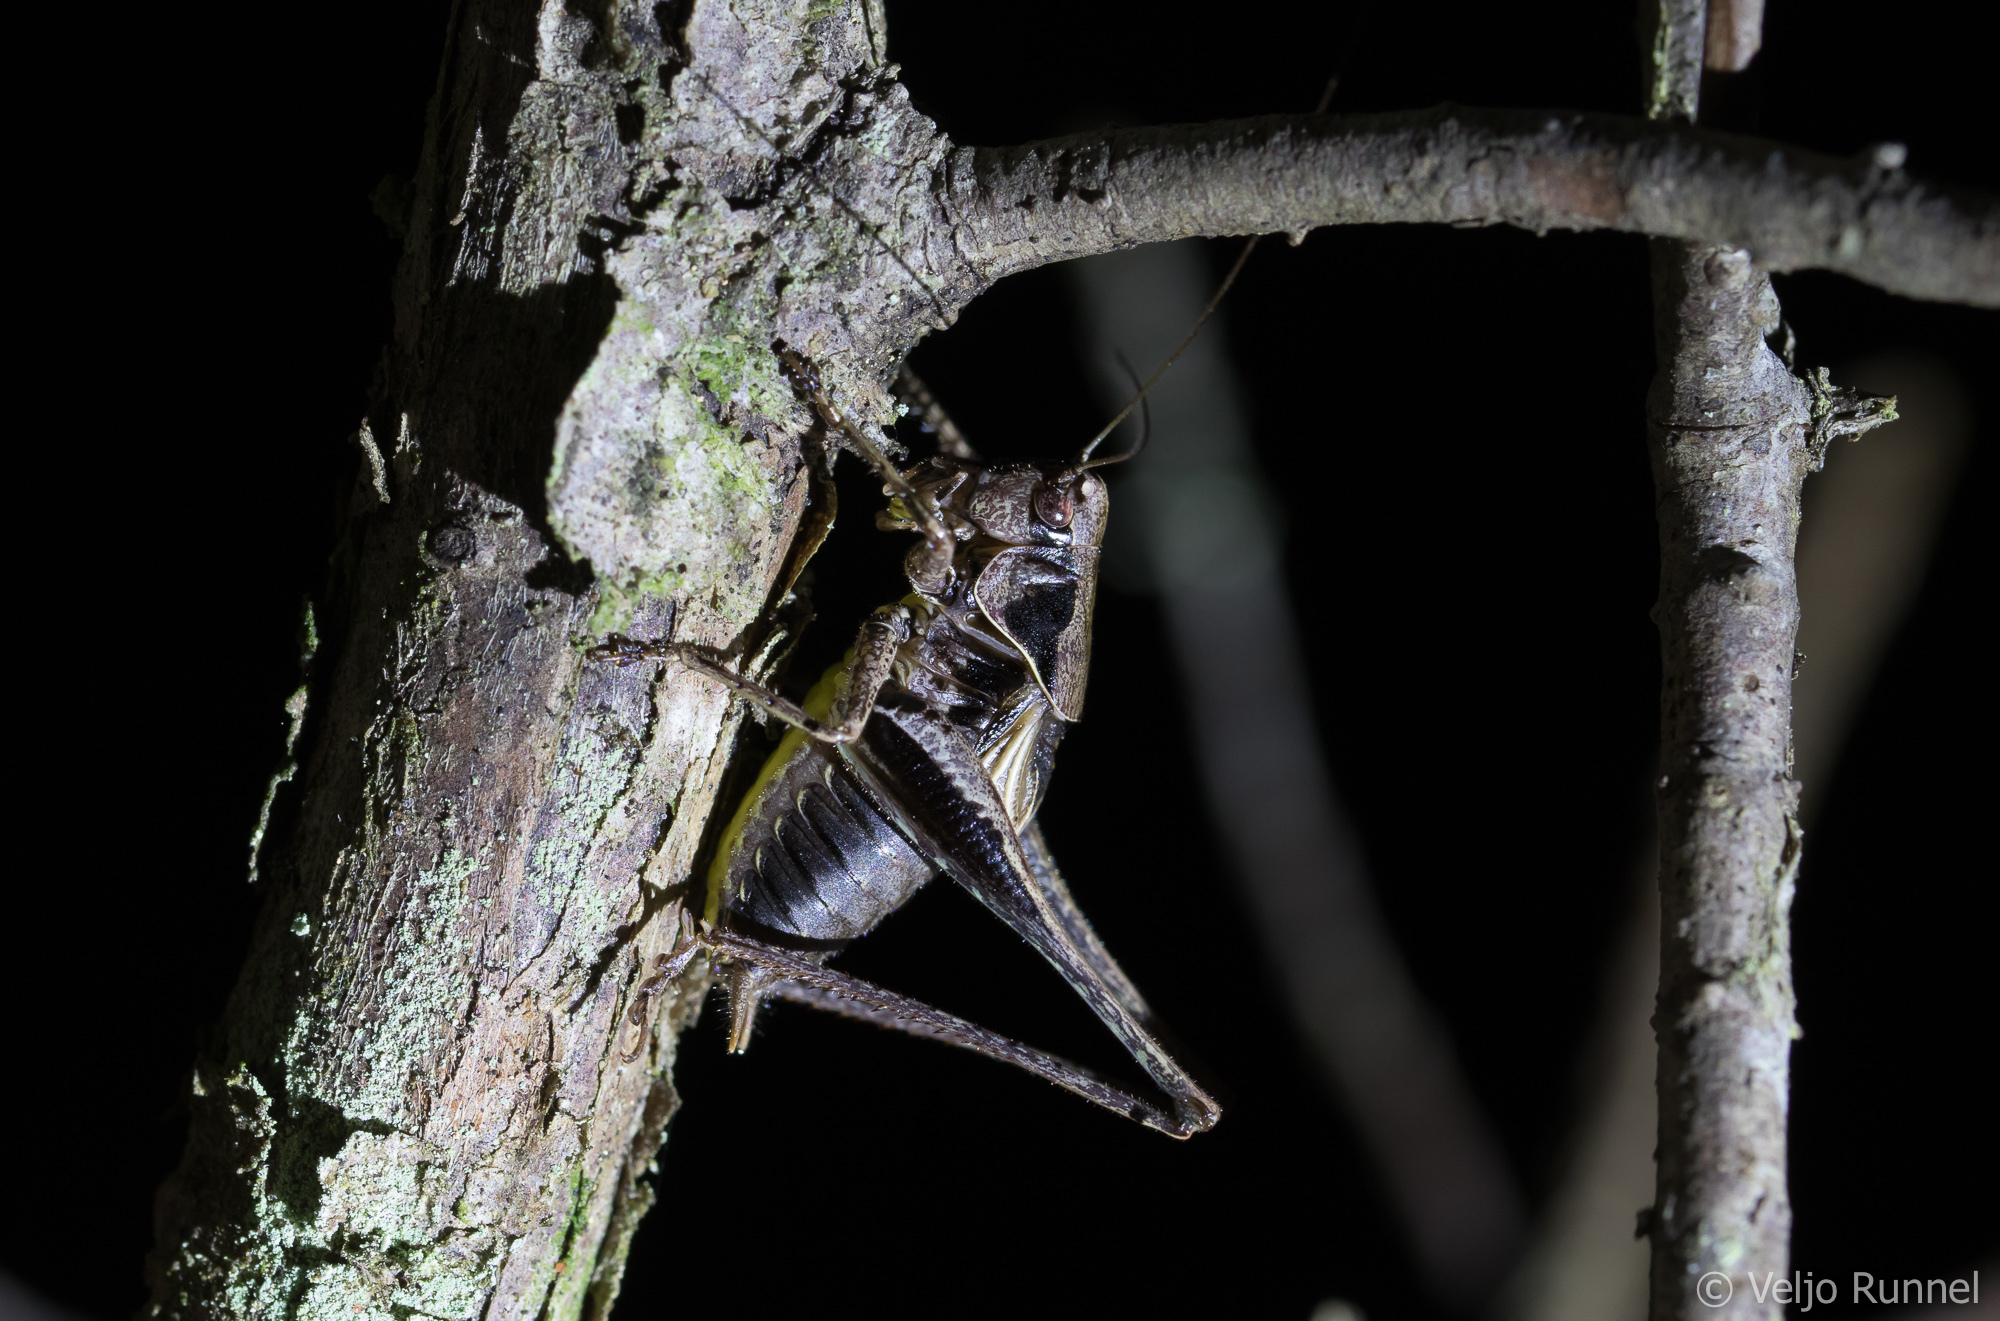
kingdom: Animalia
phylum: Arthropoda
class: Insecta
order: Orthoptera
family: Tettigoniidae
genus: Pholidoptera
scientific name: Pholidoptera griseoaptera
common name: Dark bush-cricket
